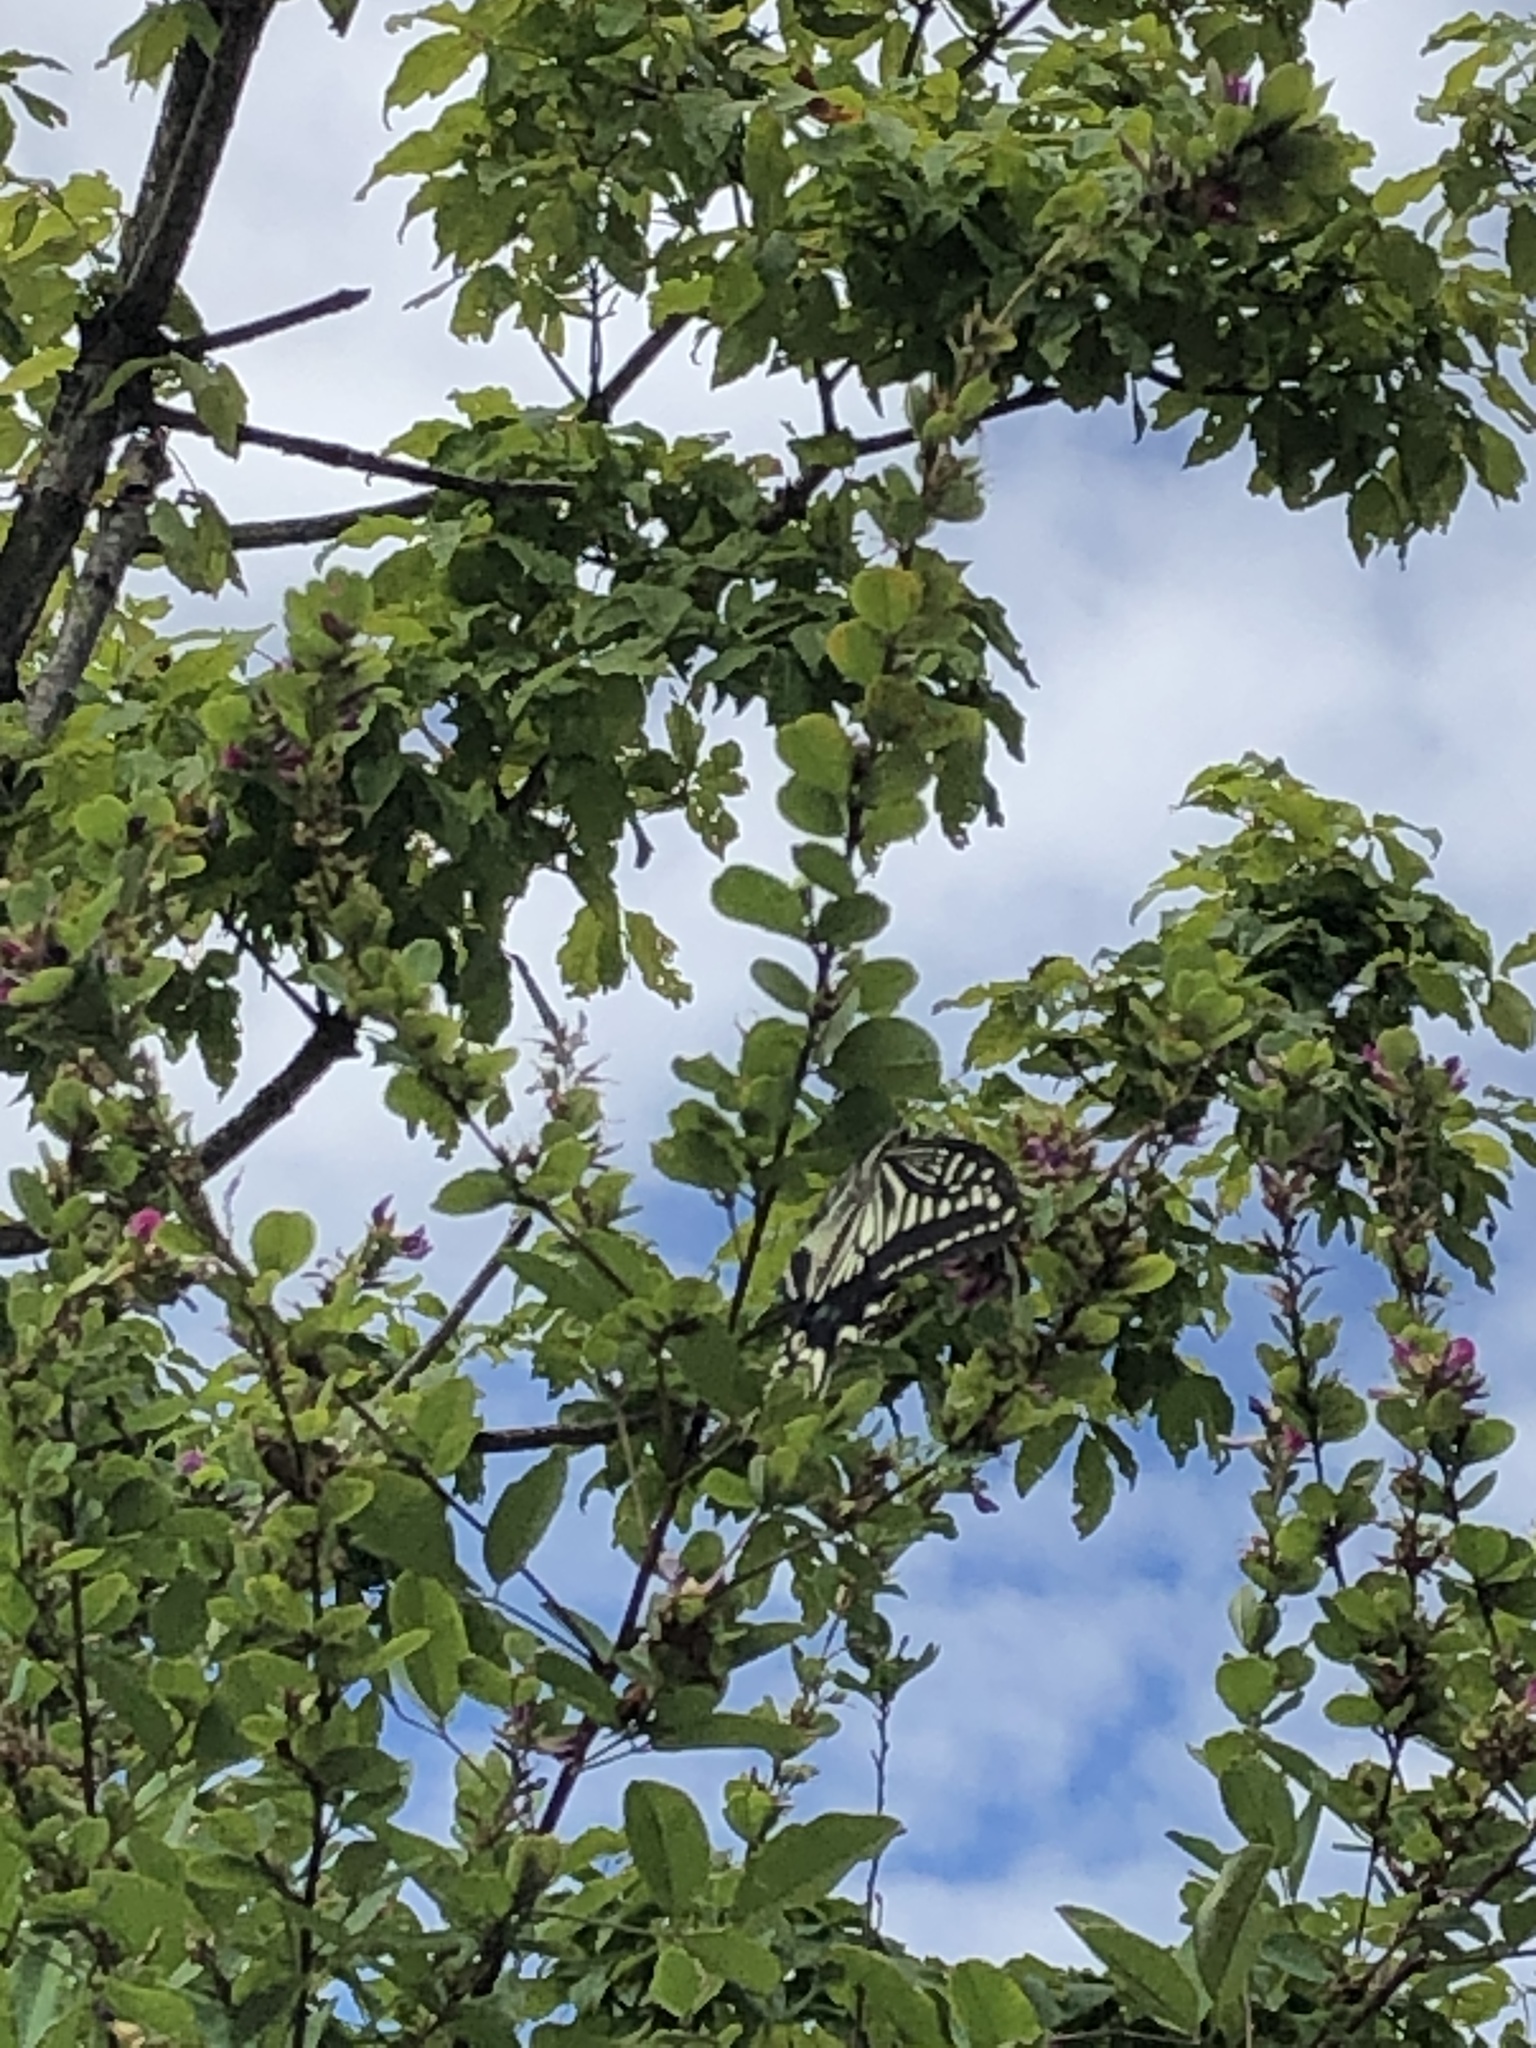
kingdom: Animalia
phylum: Arthropoda
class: Insecta
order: Lepidoptera
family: Papilionidae
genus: Papilio
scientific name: Papilio xuthus
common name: Asian swallowtail
